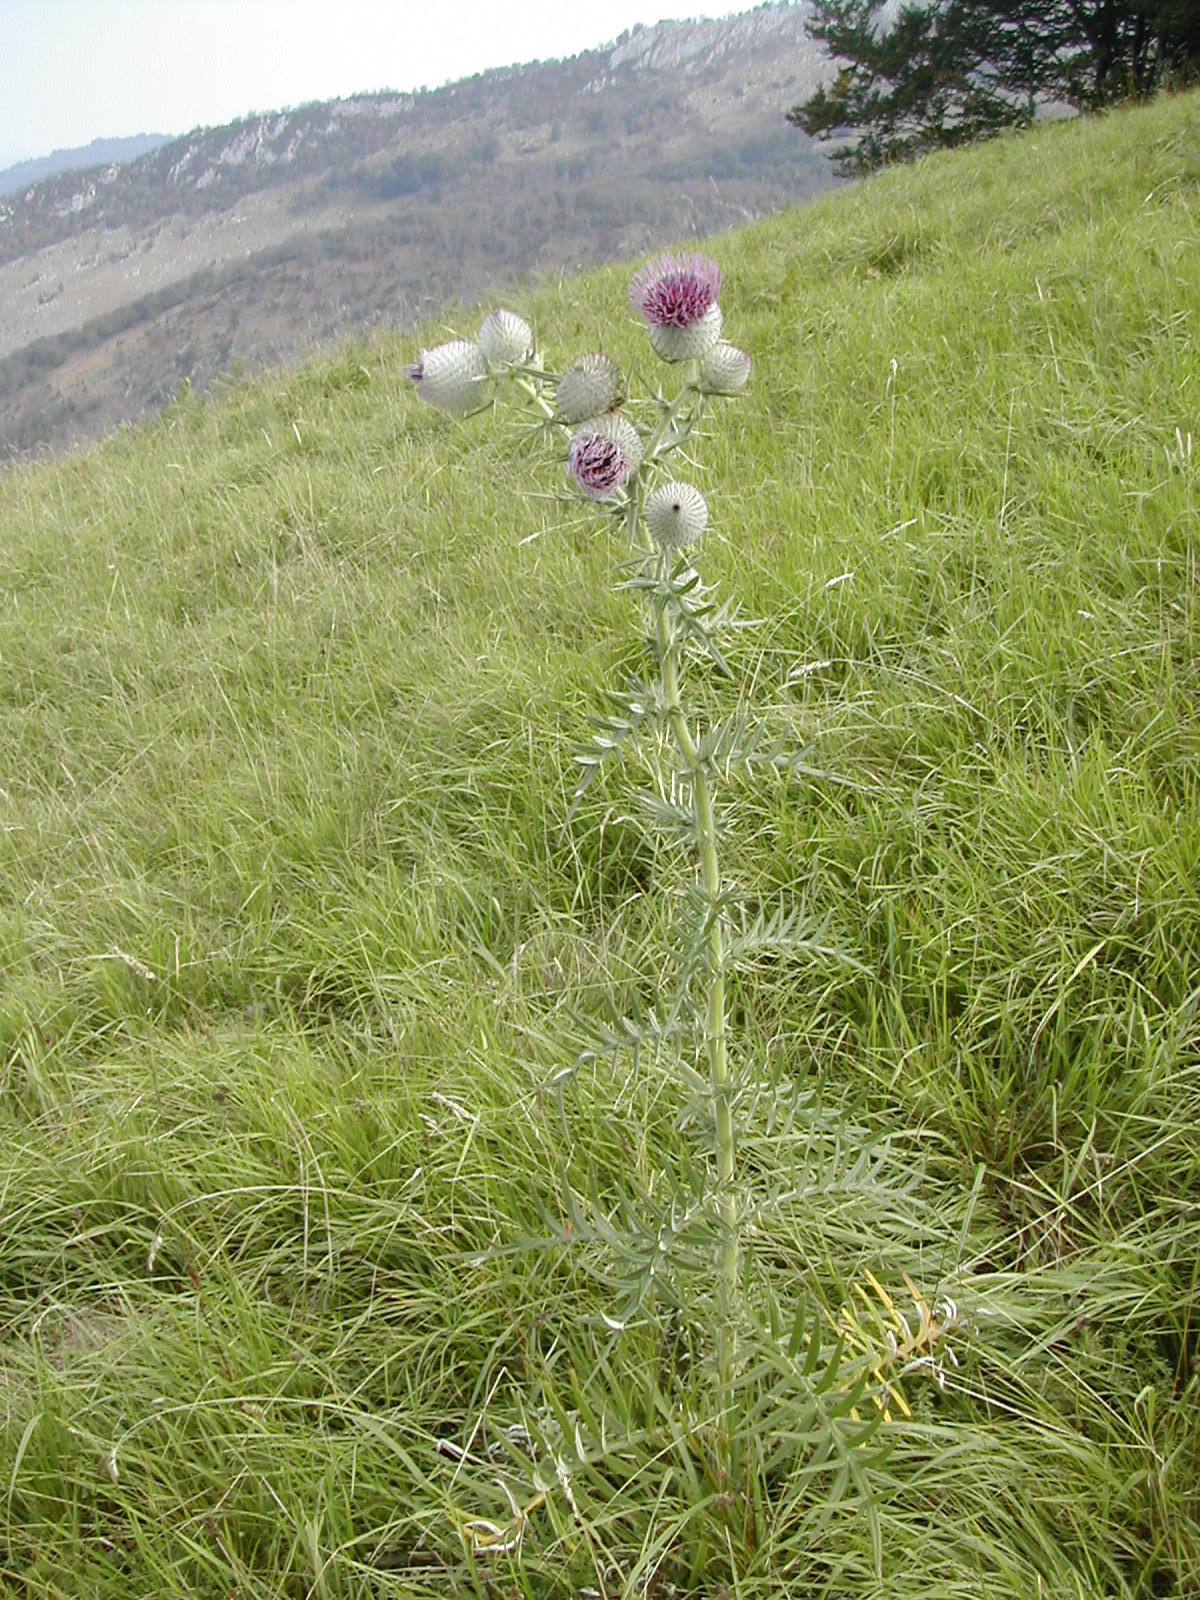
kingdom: Plantae
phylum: Tracheophyta
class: Magnoliopsida
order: Asterales
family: Asteraceae
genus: Lophiolepis
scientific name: Lophiolepis eriophora
